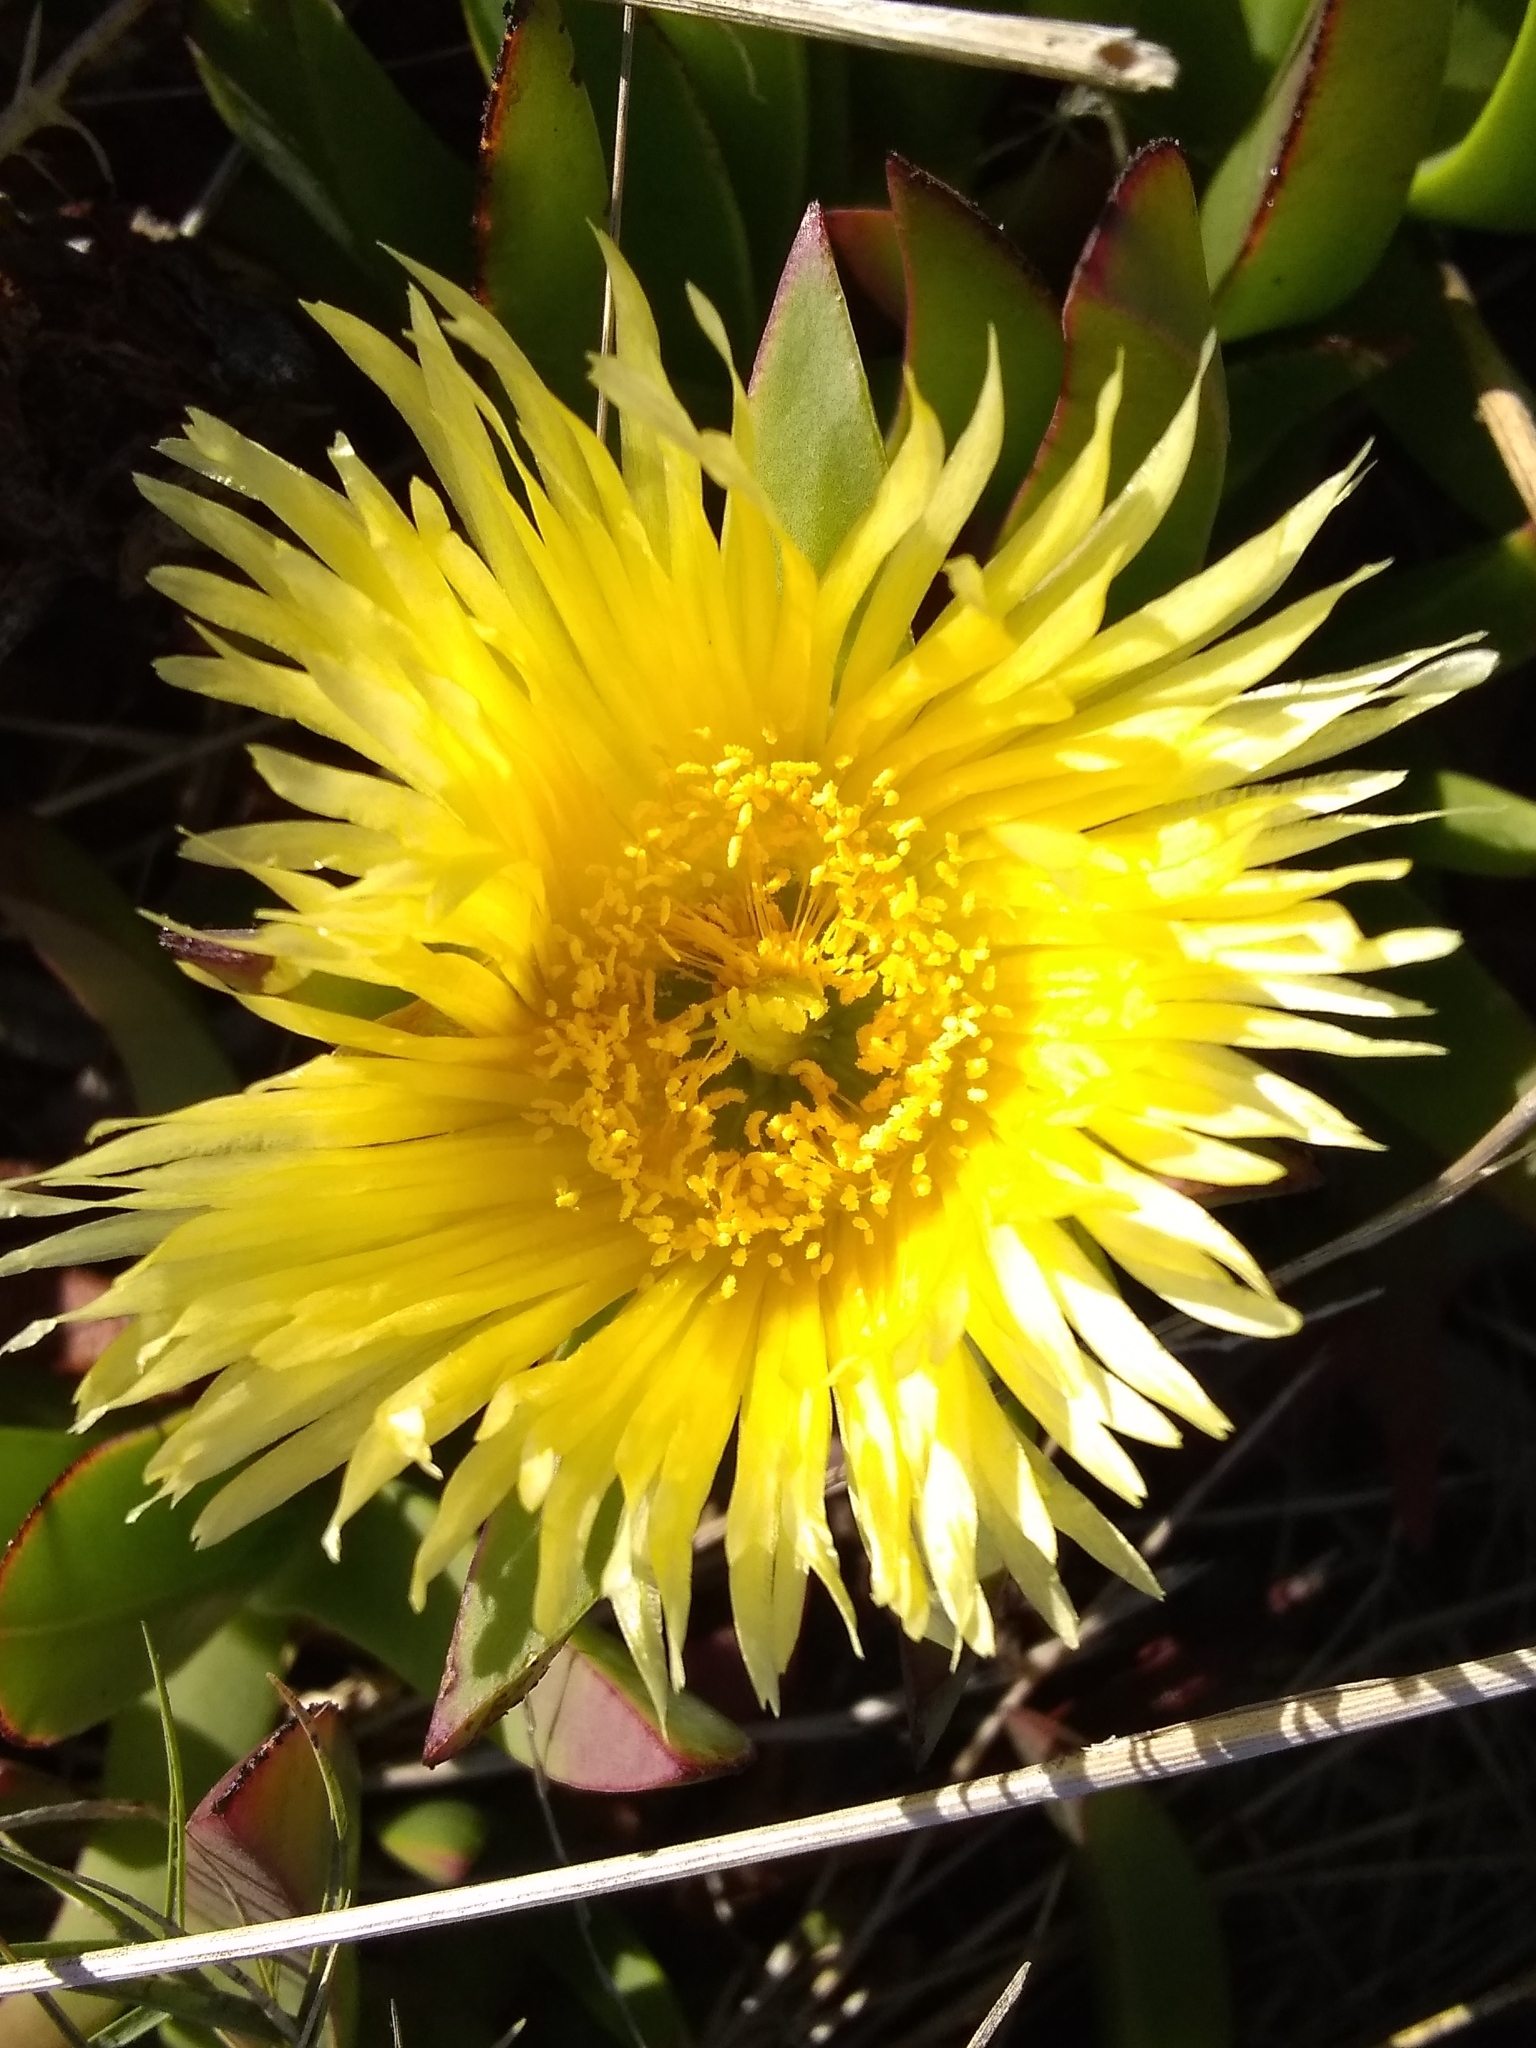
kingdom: Plantae
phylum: Tracheophyta
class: Magnoliopsida
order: Caryophyllales
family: Aizoaceae
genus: Carpobrotus
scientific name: Carpobrotus edulis
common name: Hottentot-fig
